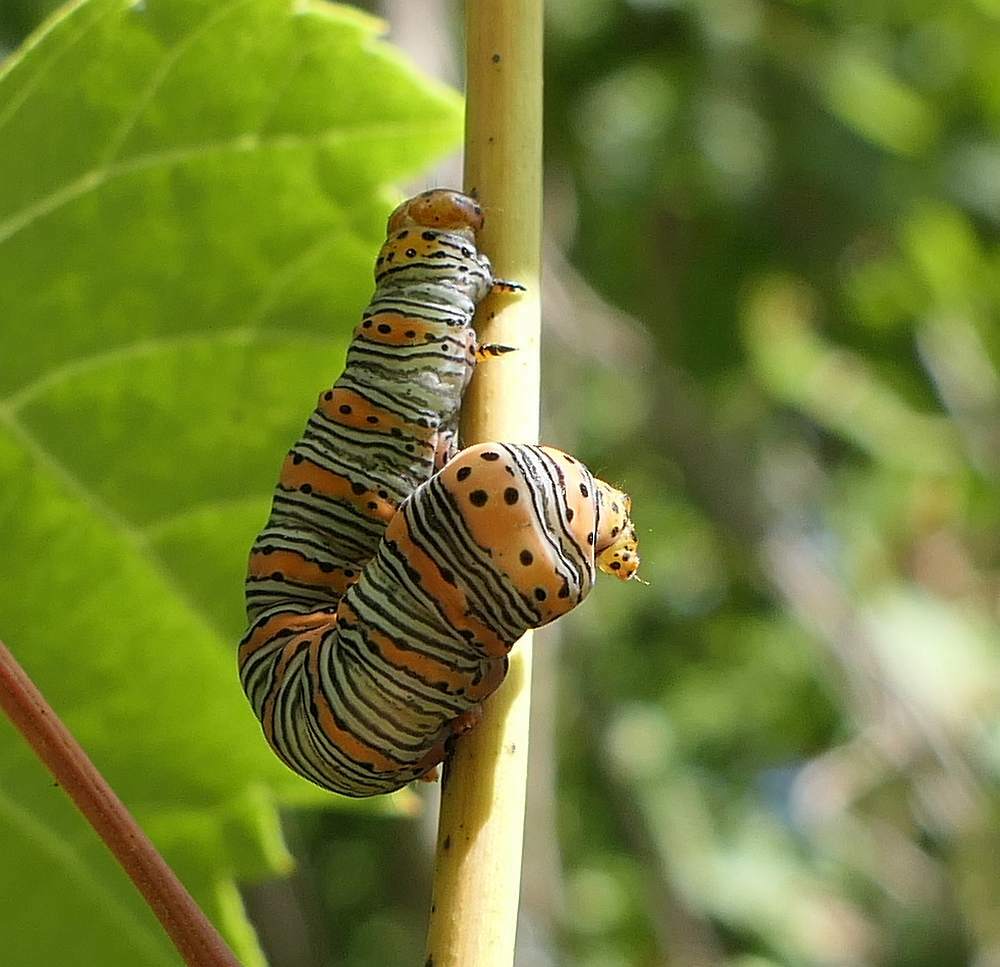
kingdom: Animalia
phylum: Arthropoda
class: Insecta
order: Lepidoptera
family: Noctuidae
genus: Eudryas
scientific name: Eudryas grata
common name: Beautiful wood-nymph
